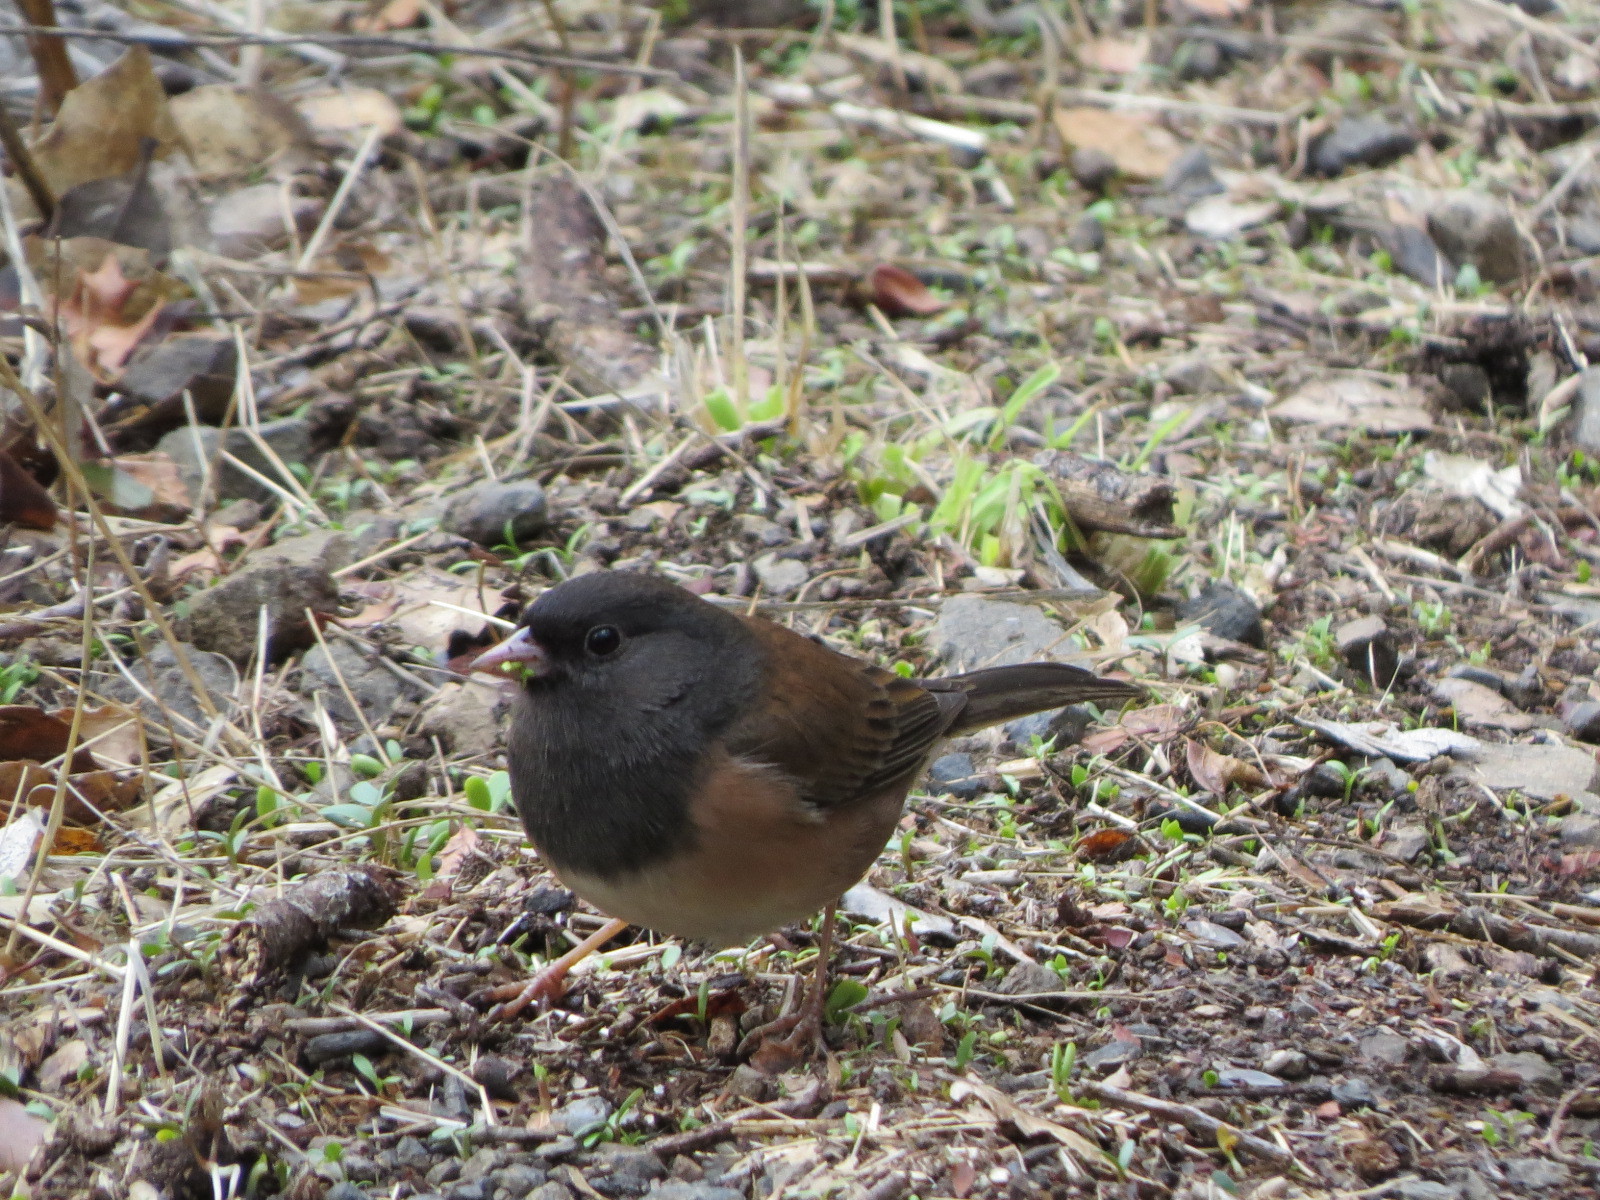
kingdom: Animalia
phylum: Chordata
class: Aves
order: Passeriformes
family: Passerellidae
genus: Junco
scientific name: Junco hyemalis
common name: Dark-eyed junco
